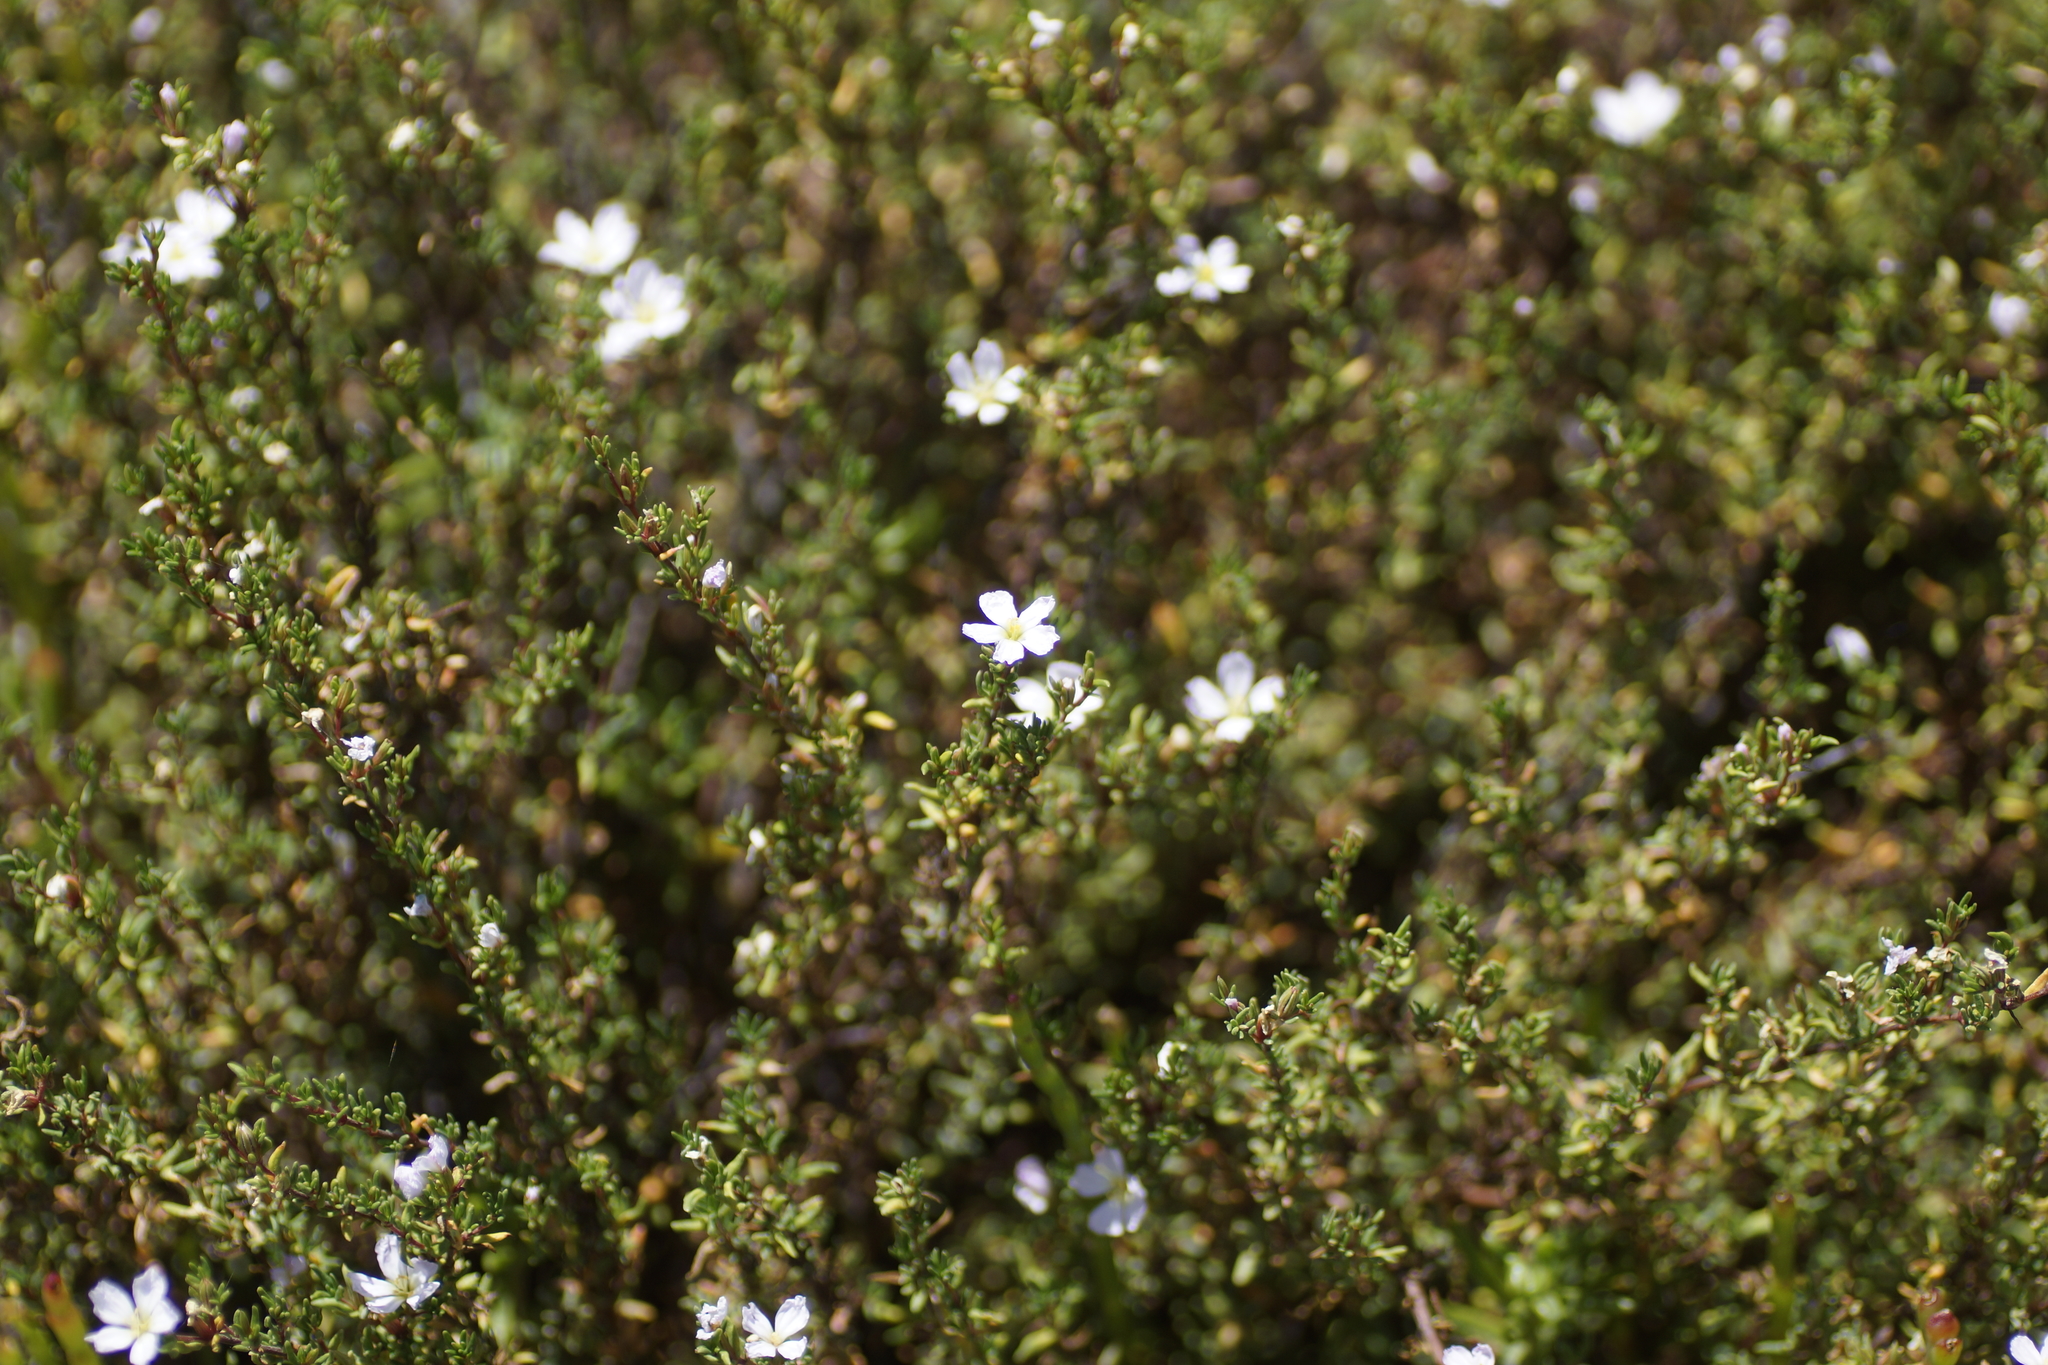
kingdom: Plantae
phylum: Tracheophyta
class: Magnoliopsida
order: Caryophyllales
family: Frankeniaceae
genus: Frankenia
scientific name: Frankenia pauciflora
